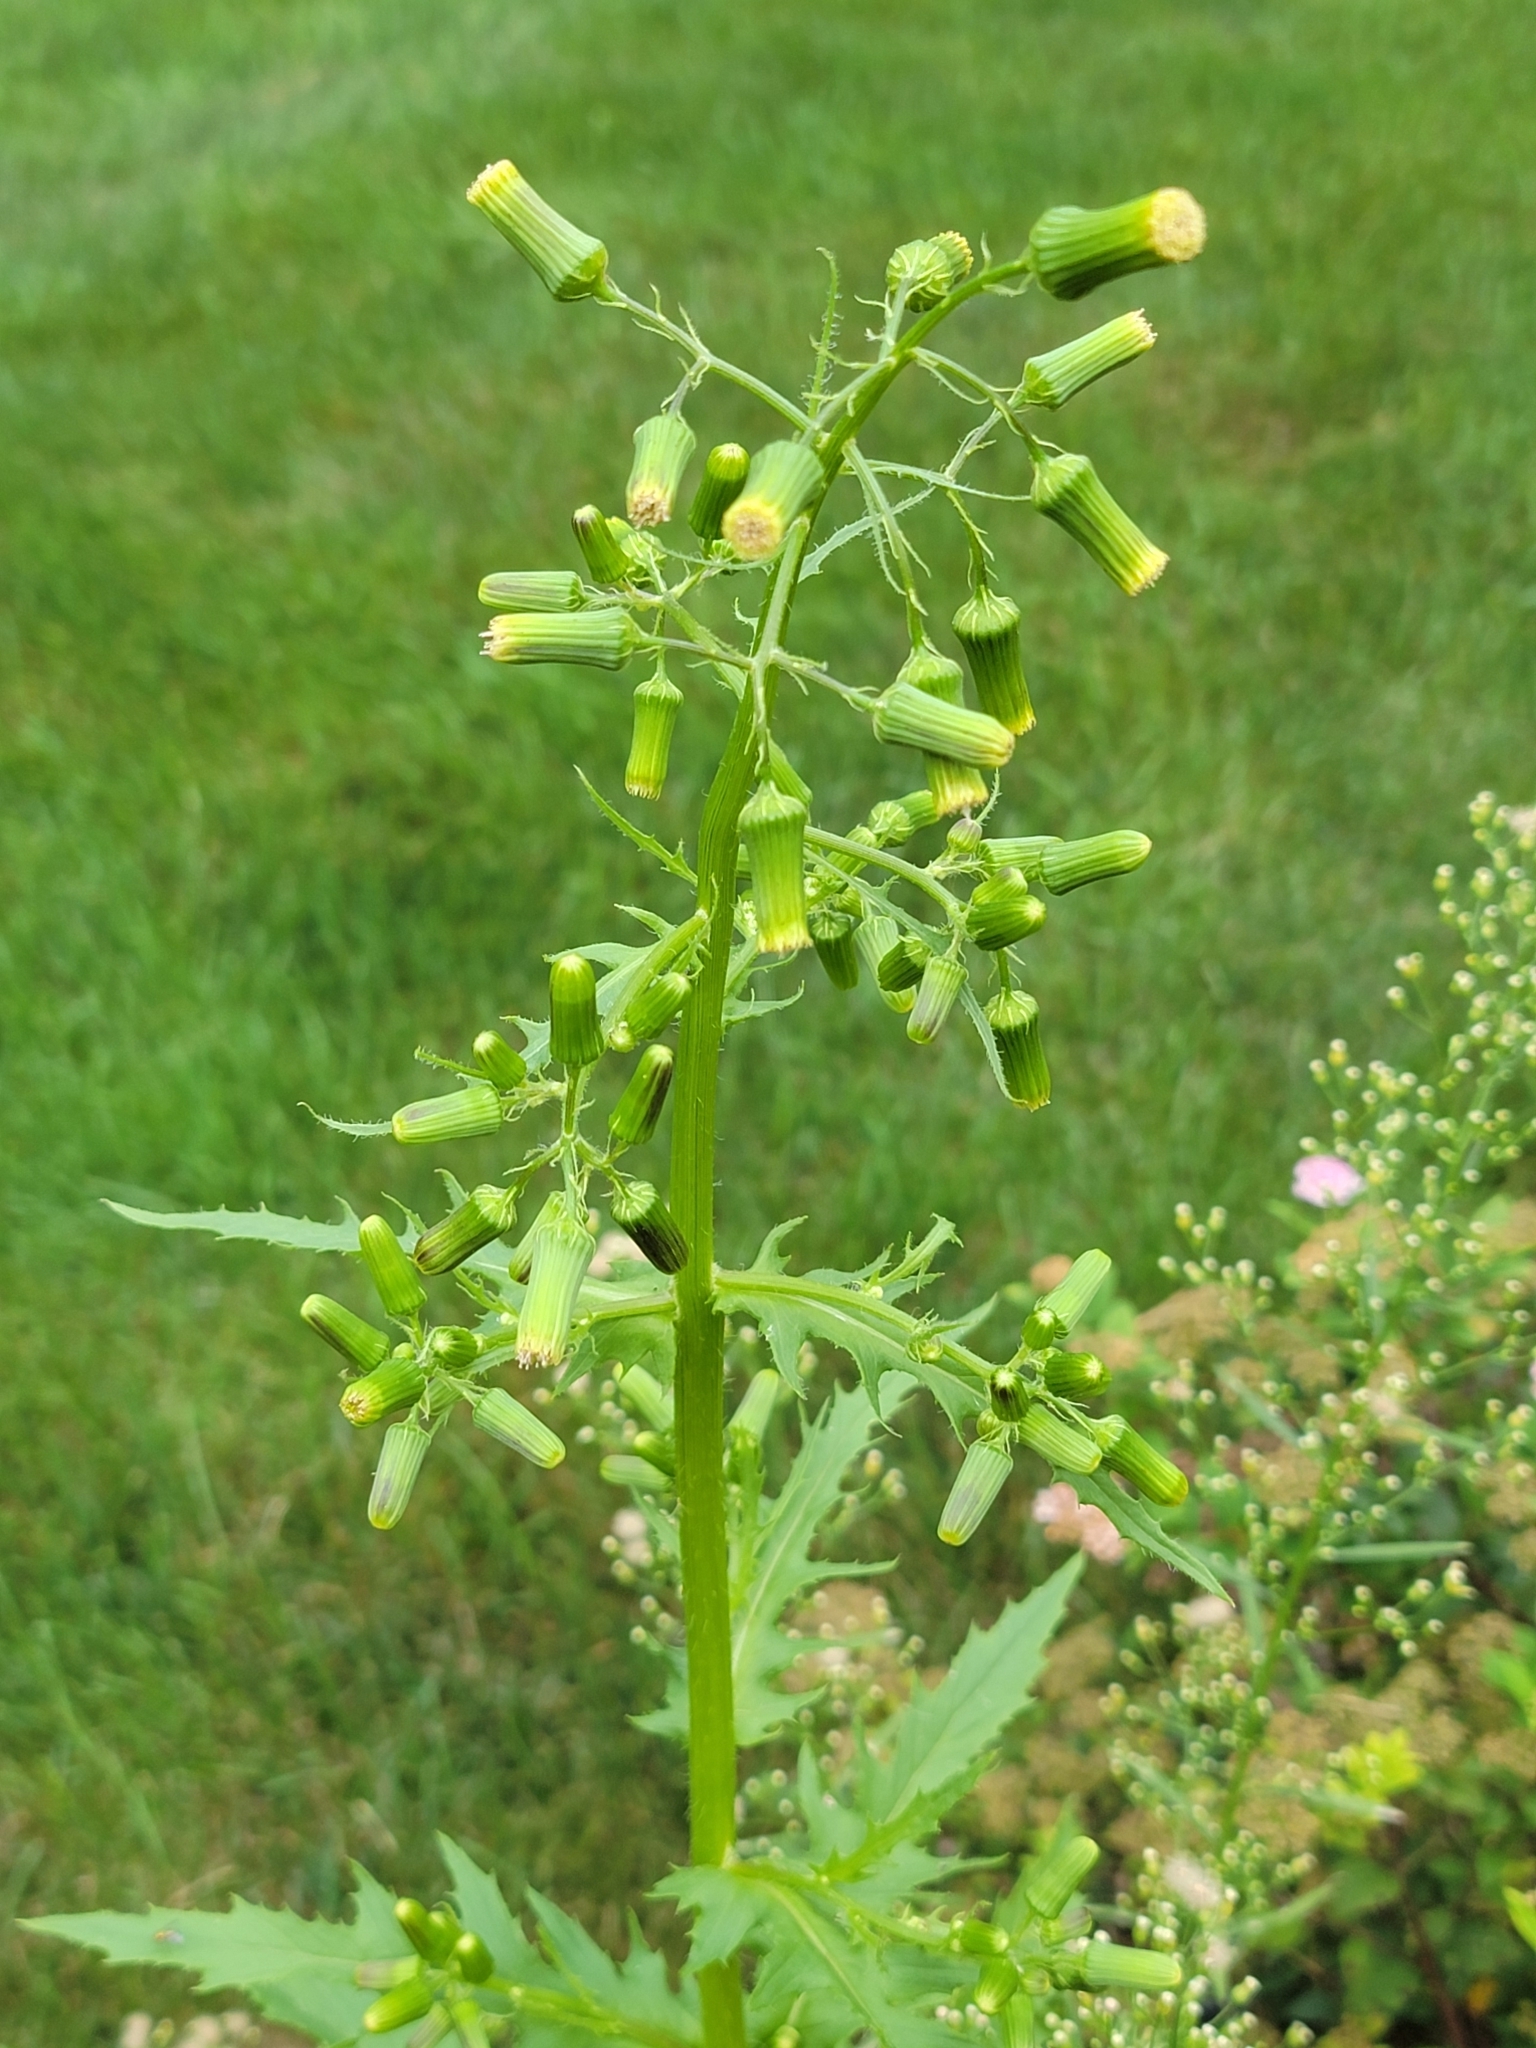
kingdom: Plantae
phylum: Tracheophyta
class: Magnoliopsida
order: Asterales
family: Asteraceae
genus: Senecio
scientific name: Senecio vulgaris
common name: Old-man-in-the-spring
